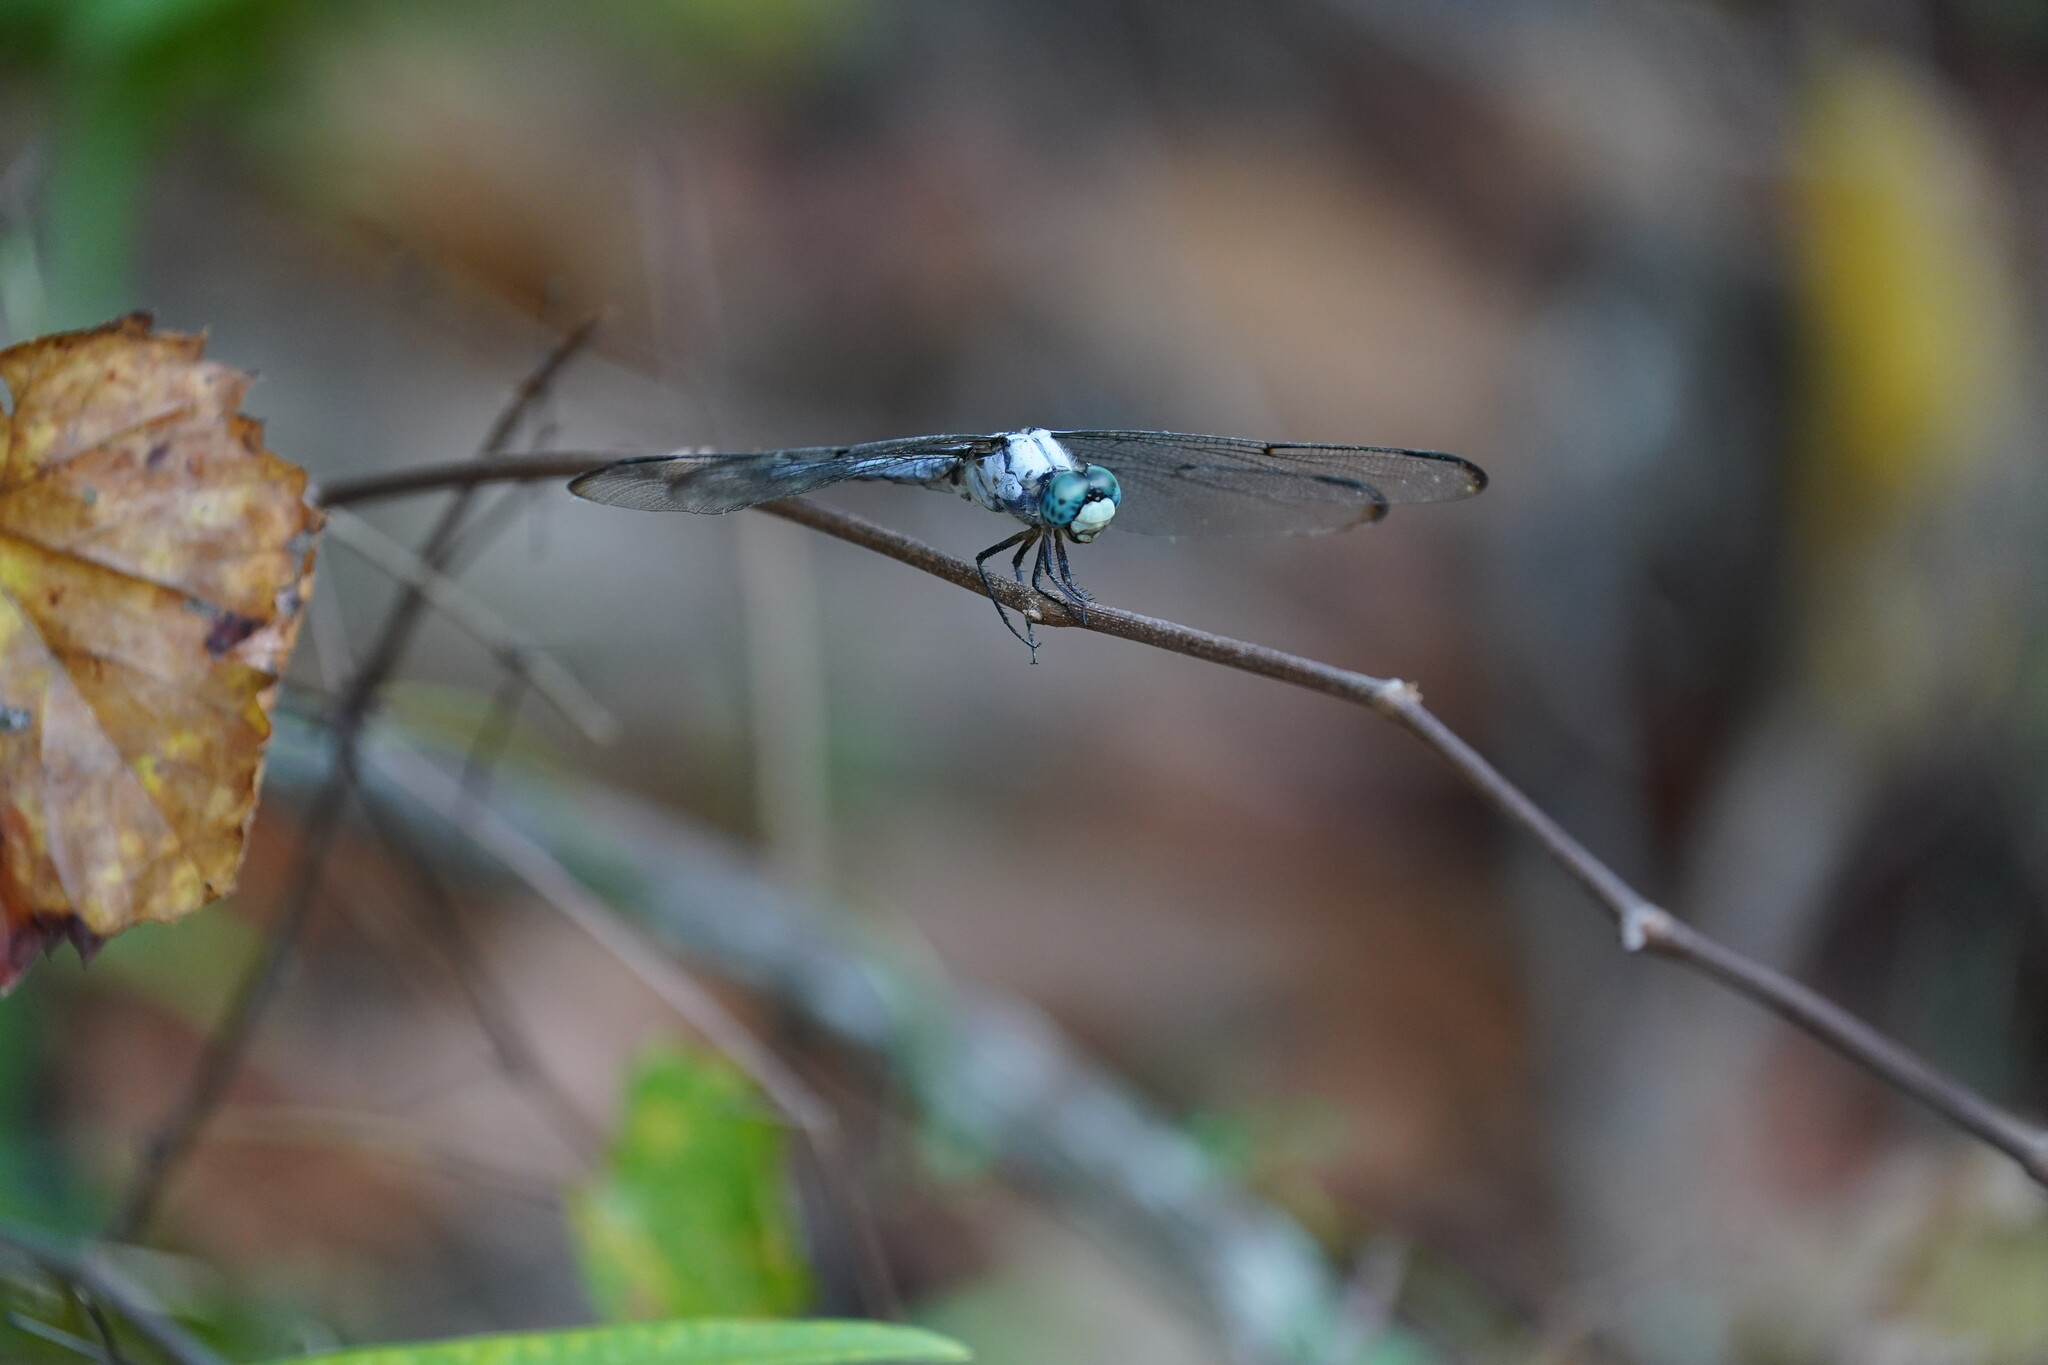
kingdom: Animalia
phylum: Arthropoda
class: Insecta
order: Odonata
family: Libellulidae
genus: Libellula
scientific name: Libellula vibrans
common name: Great blue skimmer
